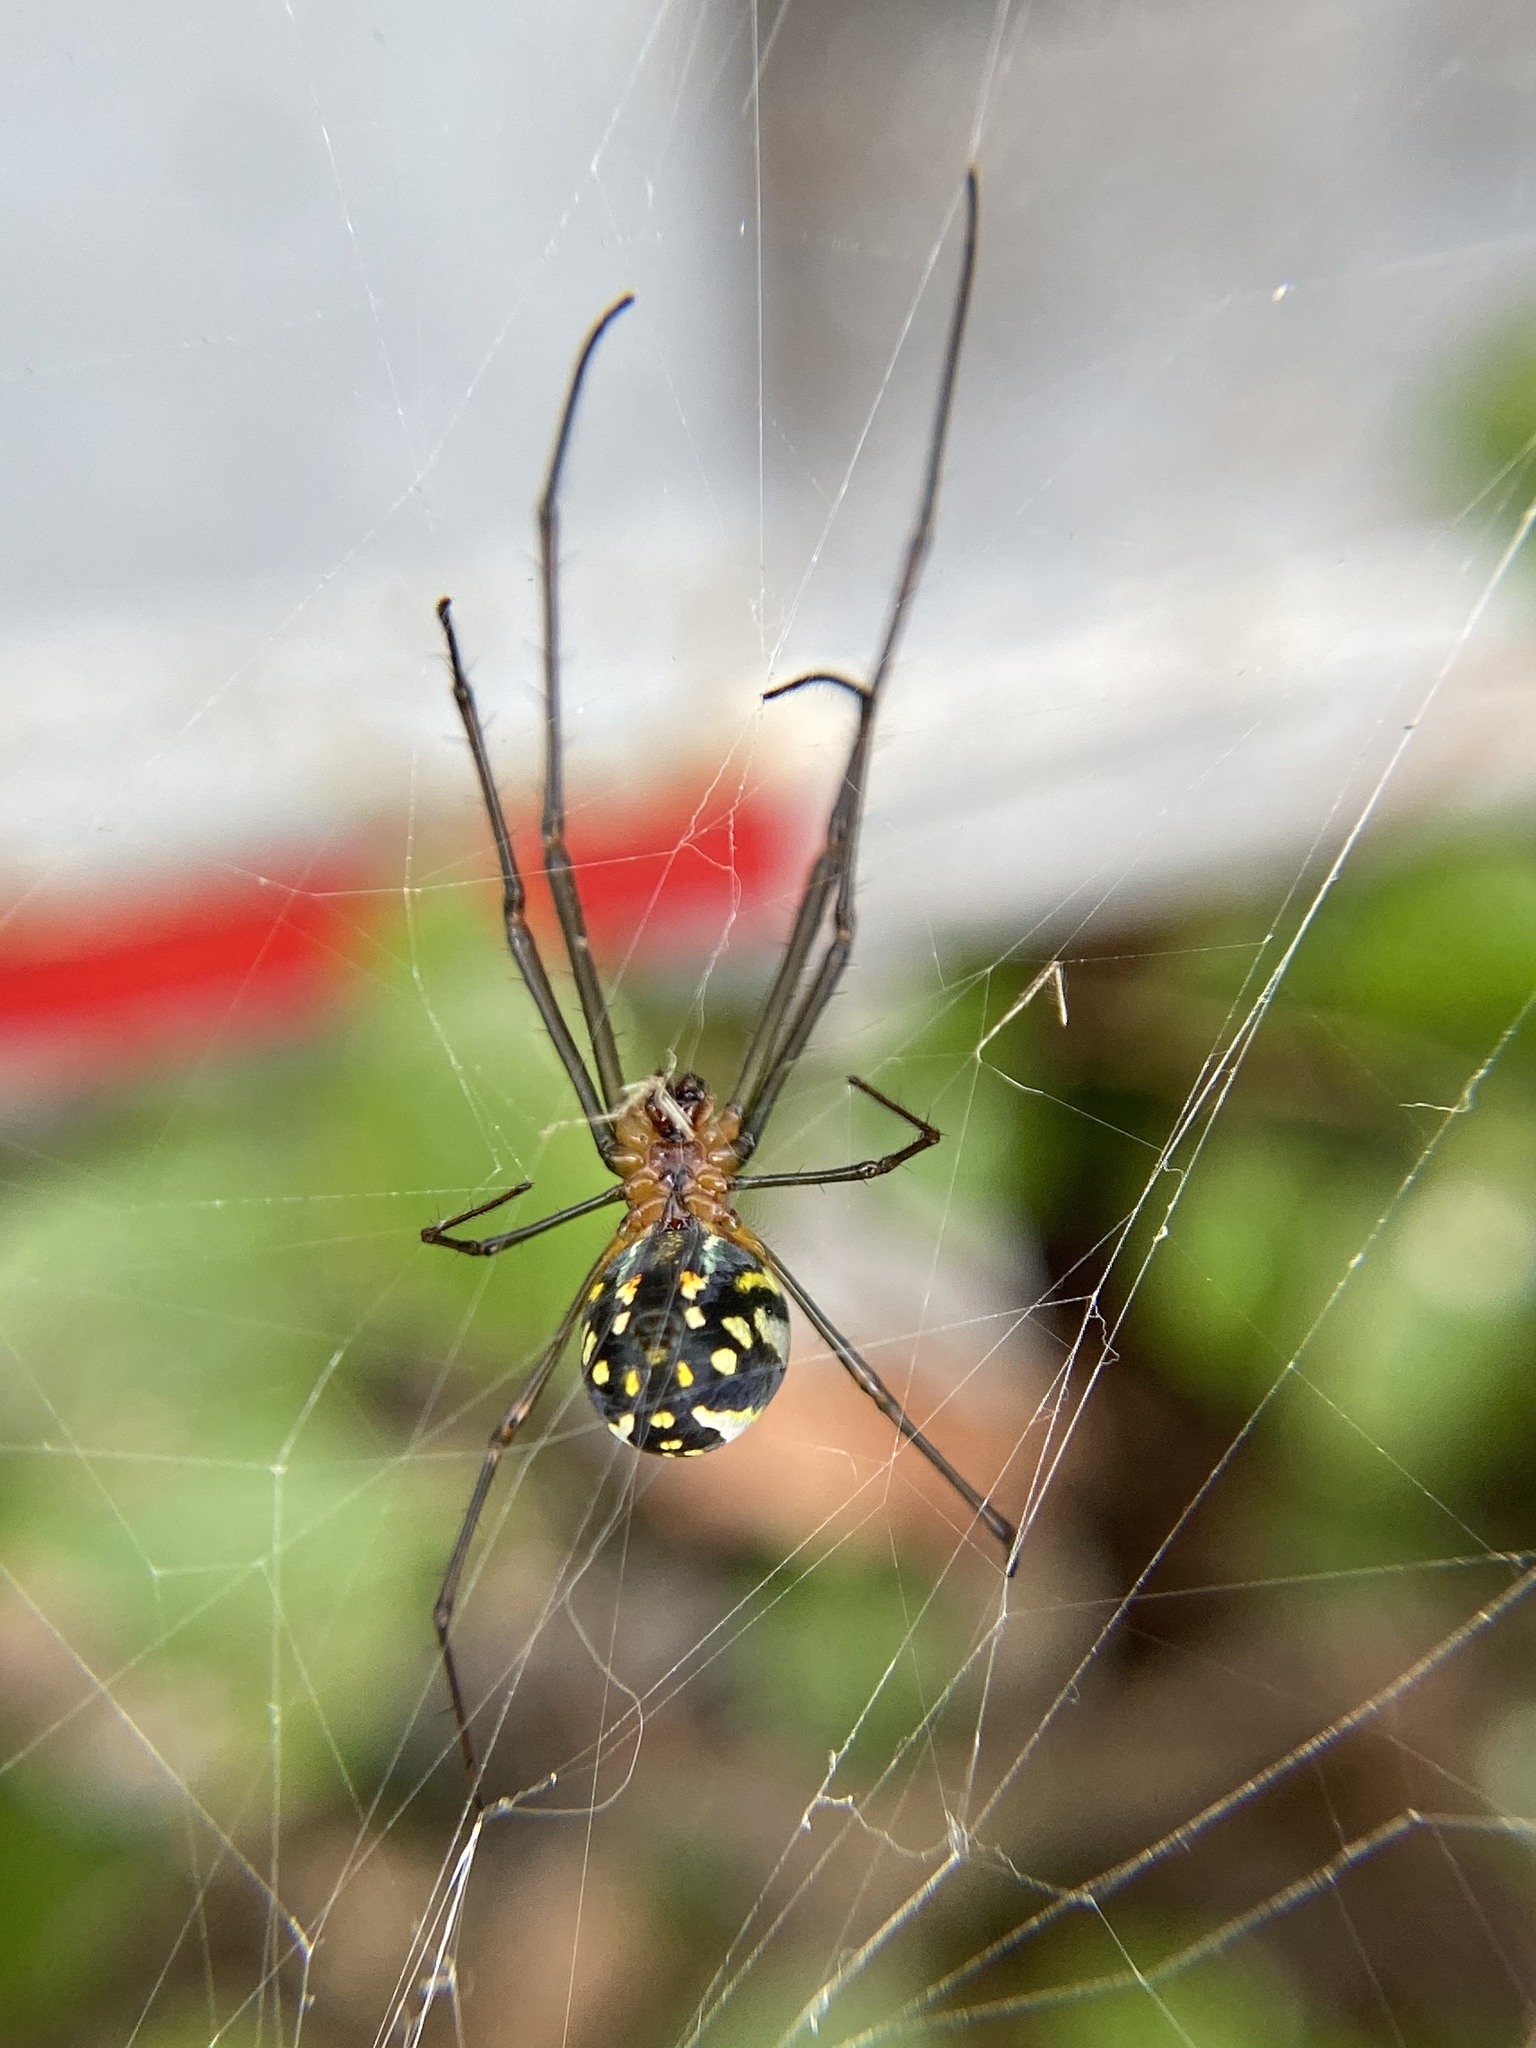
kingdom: Animalia
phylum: Arthropoda
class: Arachnida
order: Araneae
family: Tetragnathidae
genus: Leucauge
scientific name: Leucauge argyra
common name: Longjawed orb weavers
